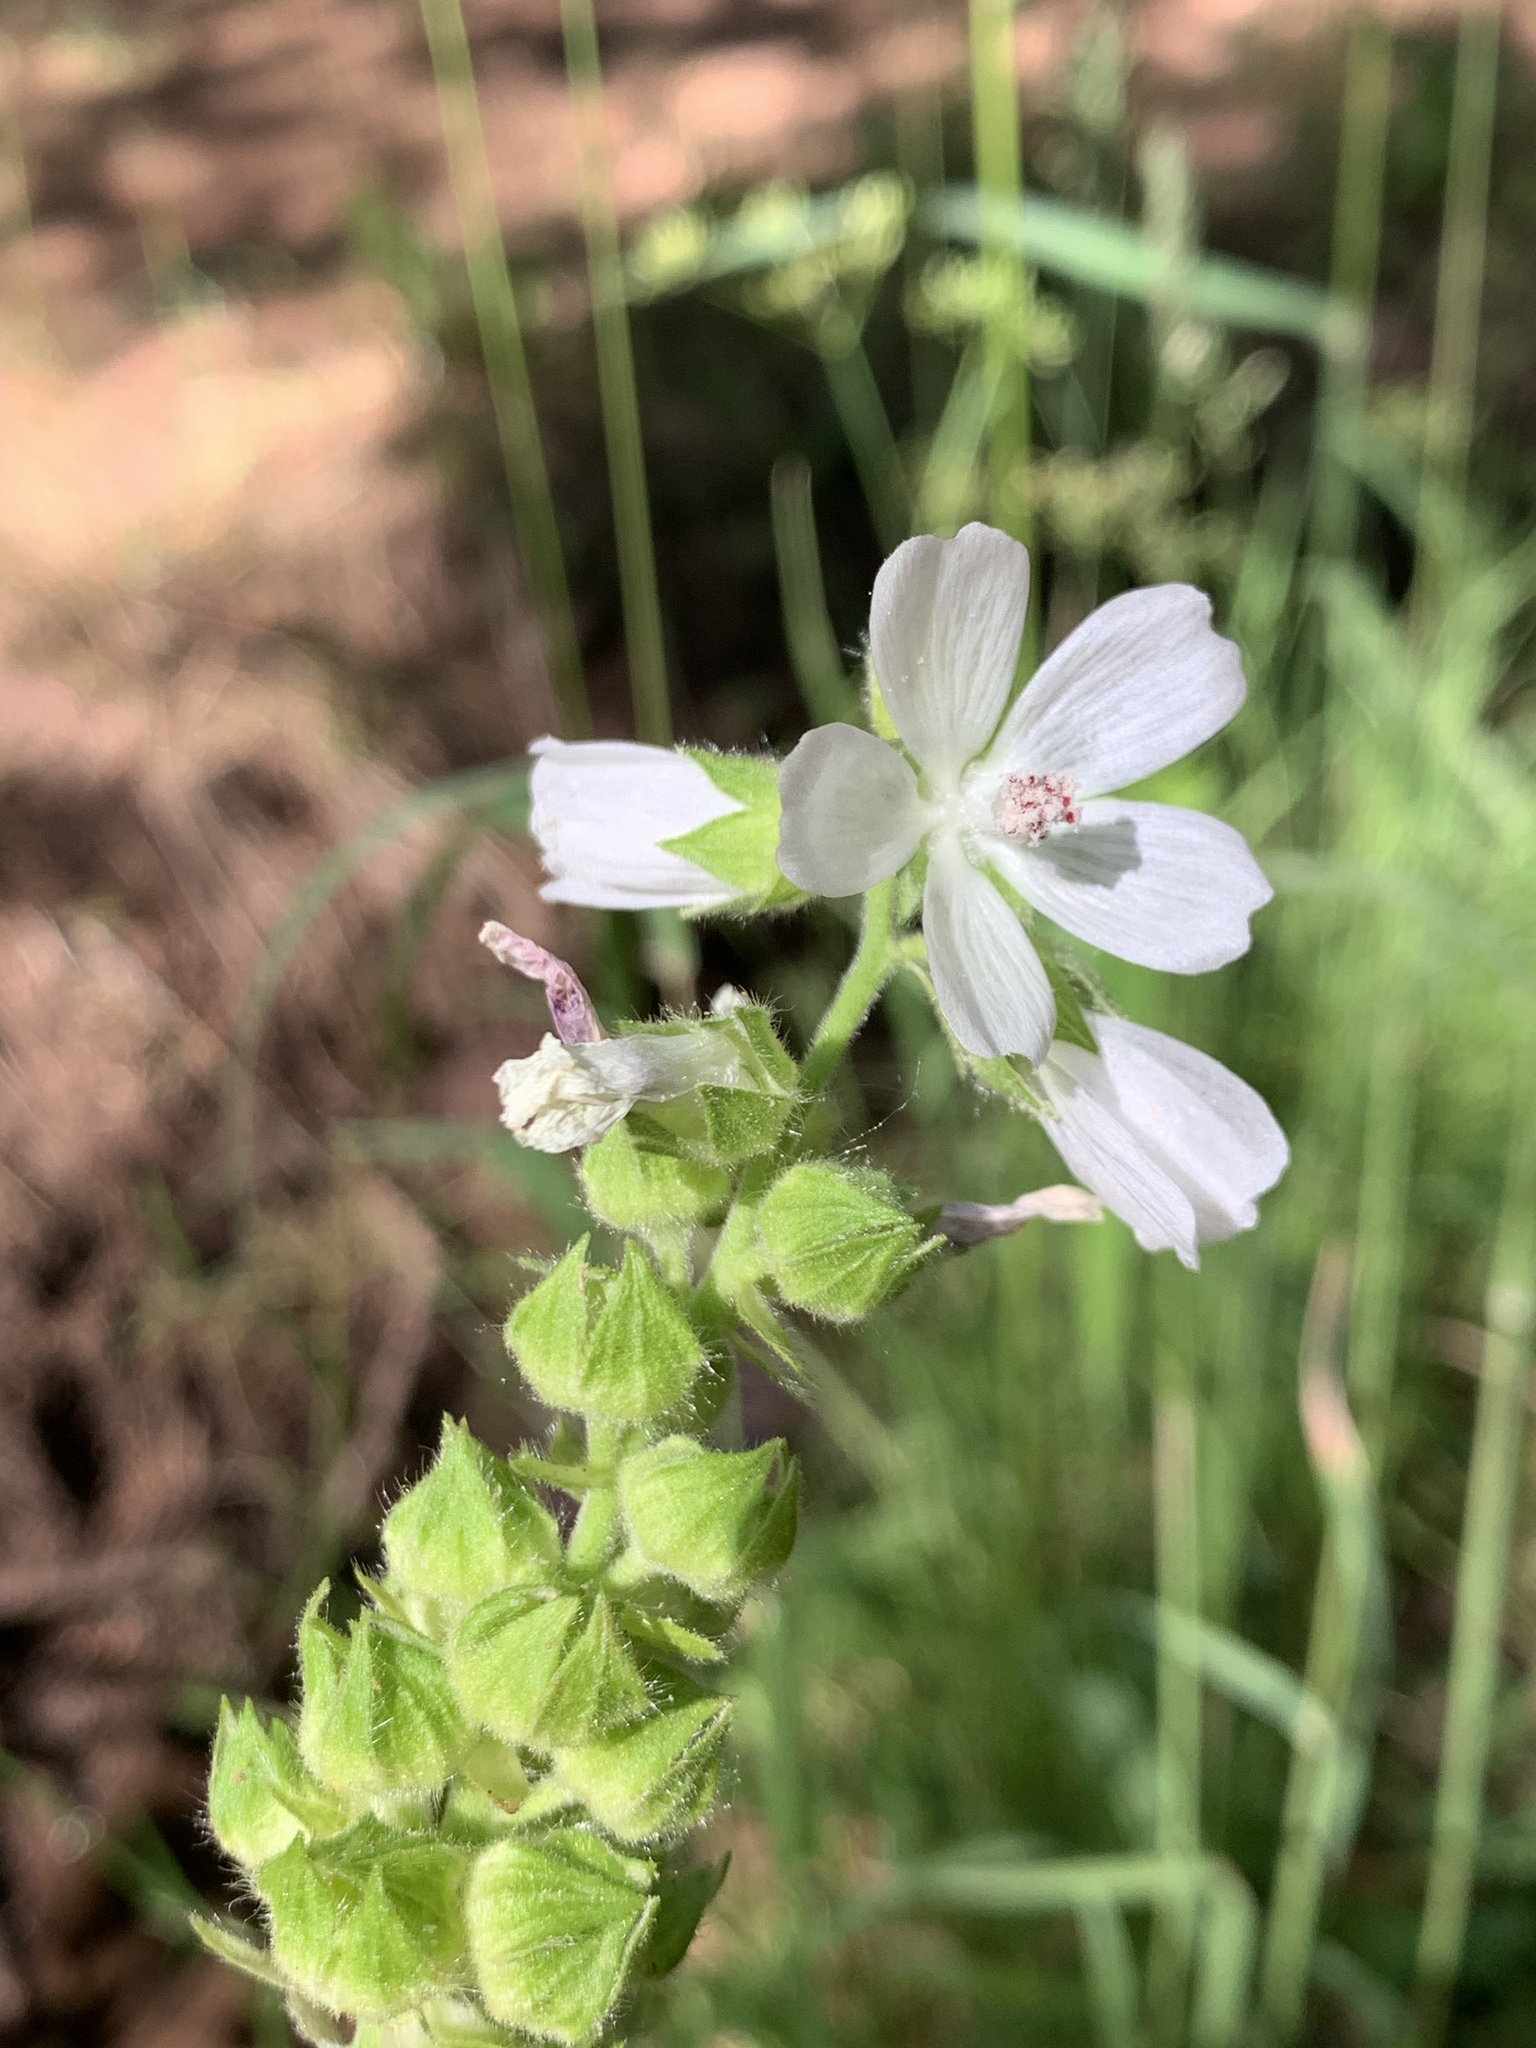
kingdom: Plantae
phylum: Tracheophyta
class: Magnoliopsida
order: Malvales
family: Malvaceae
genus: Sidalcea
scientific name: Sidalcea candida
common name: Prairie-mallow
